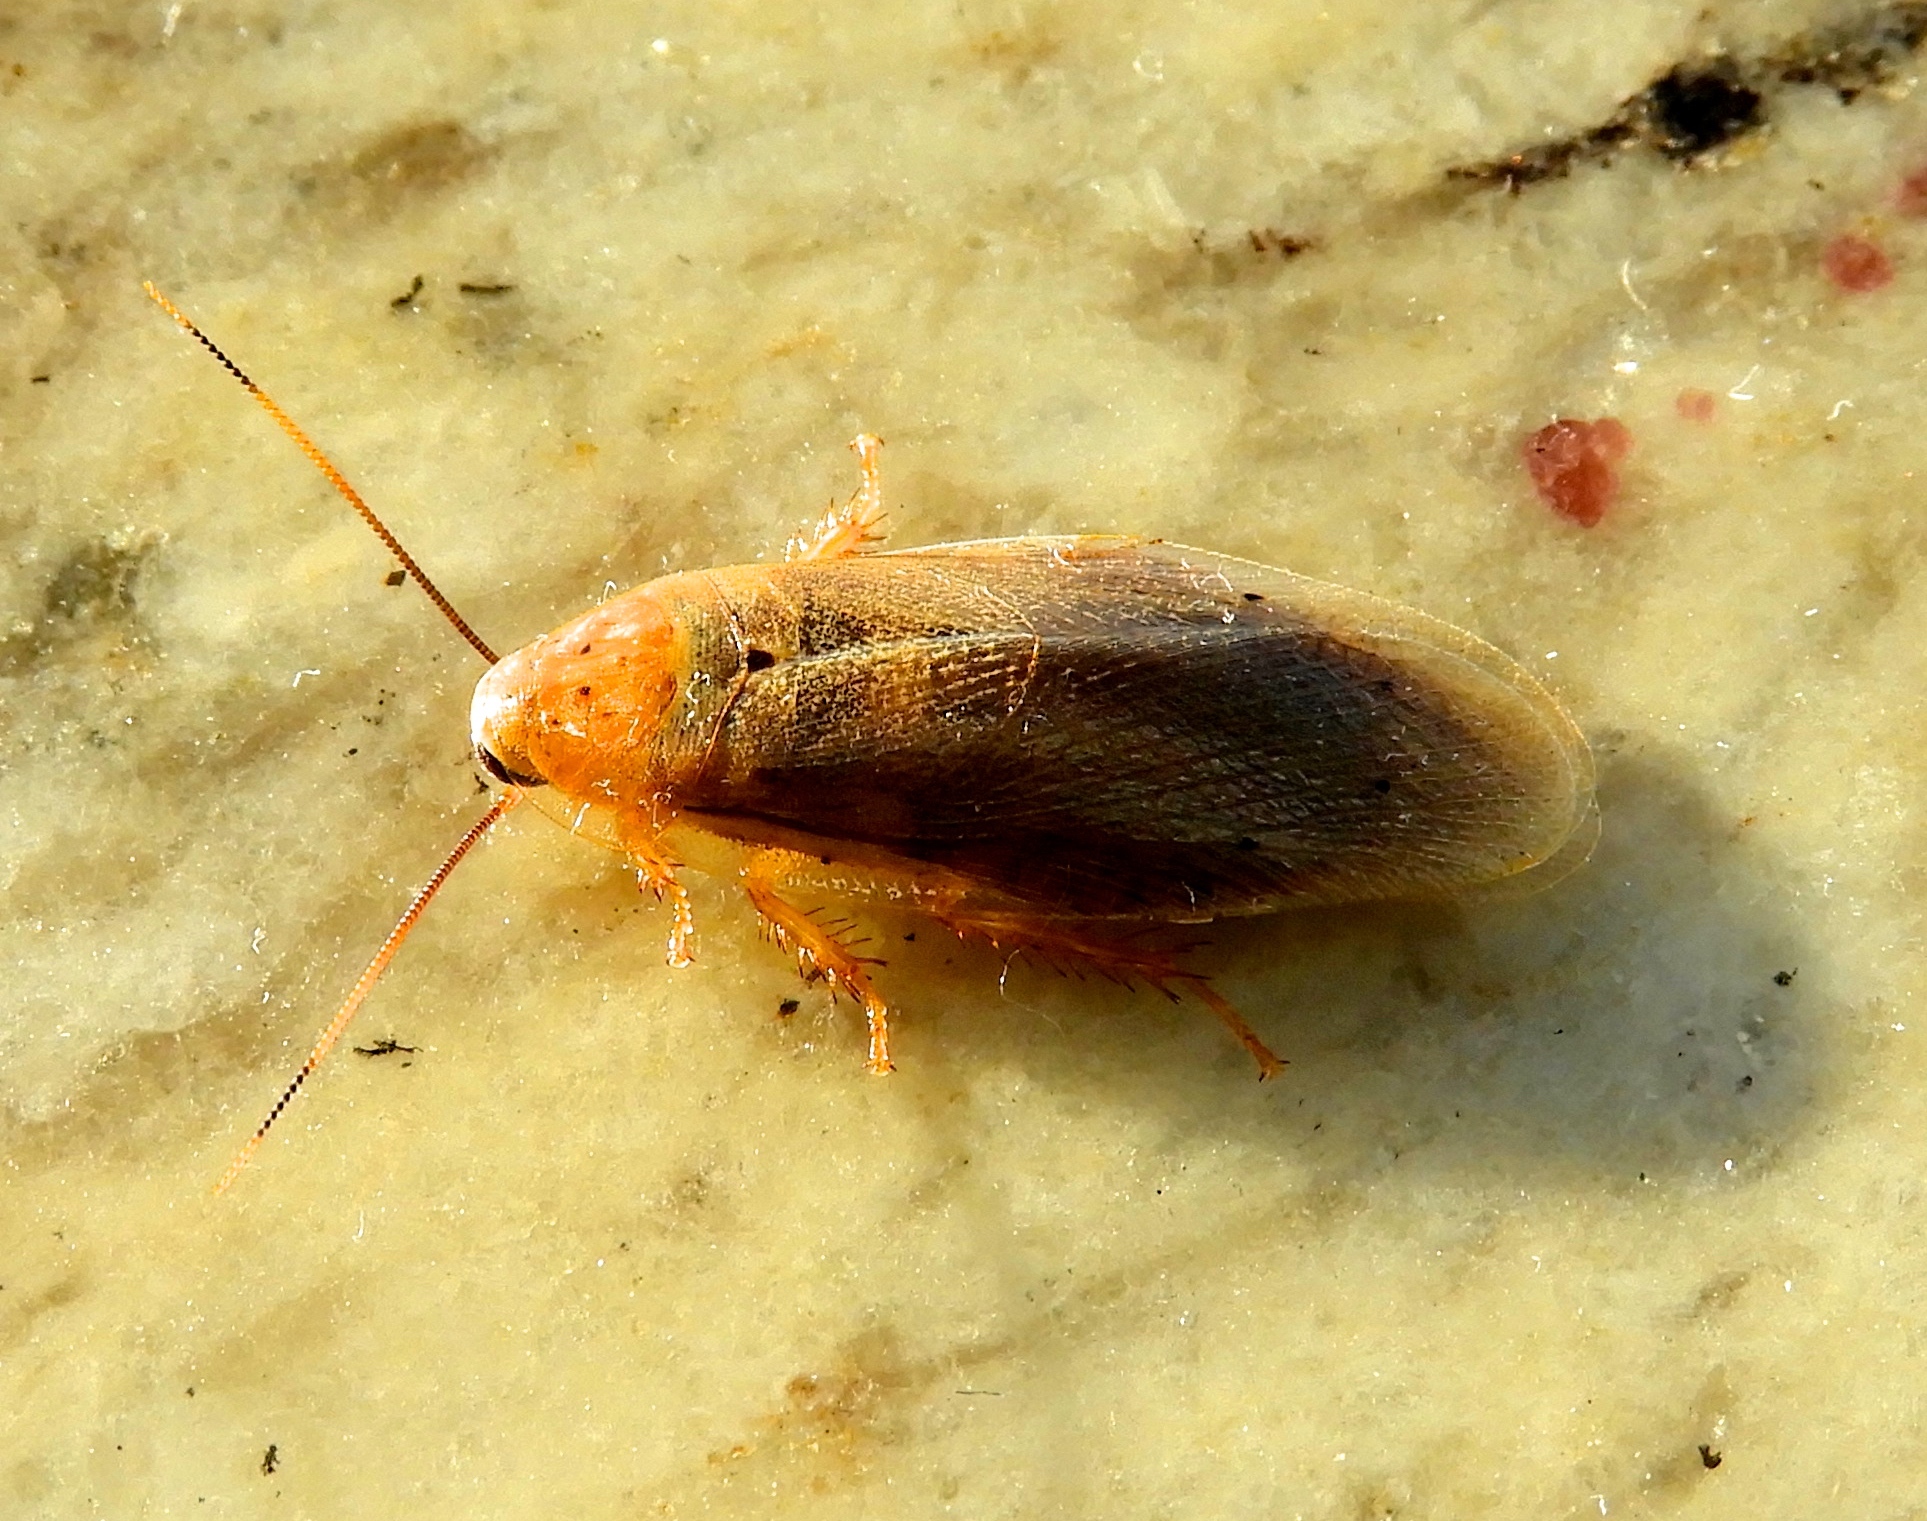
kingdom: Animalia
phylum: Arthropoda
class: Insecta
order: Blattodea
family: Blaberidae
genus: Panchlora
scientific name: Panchlora cahita
